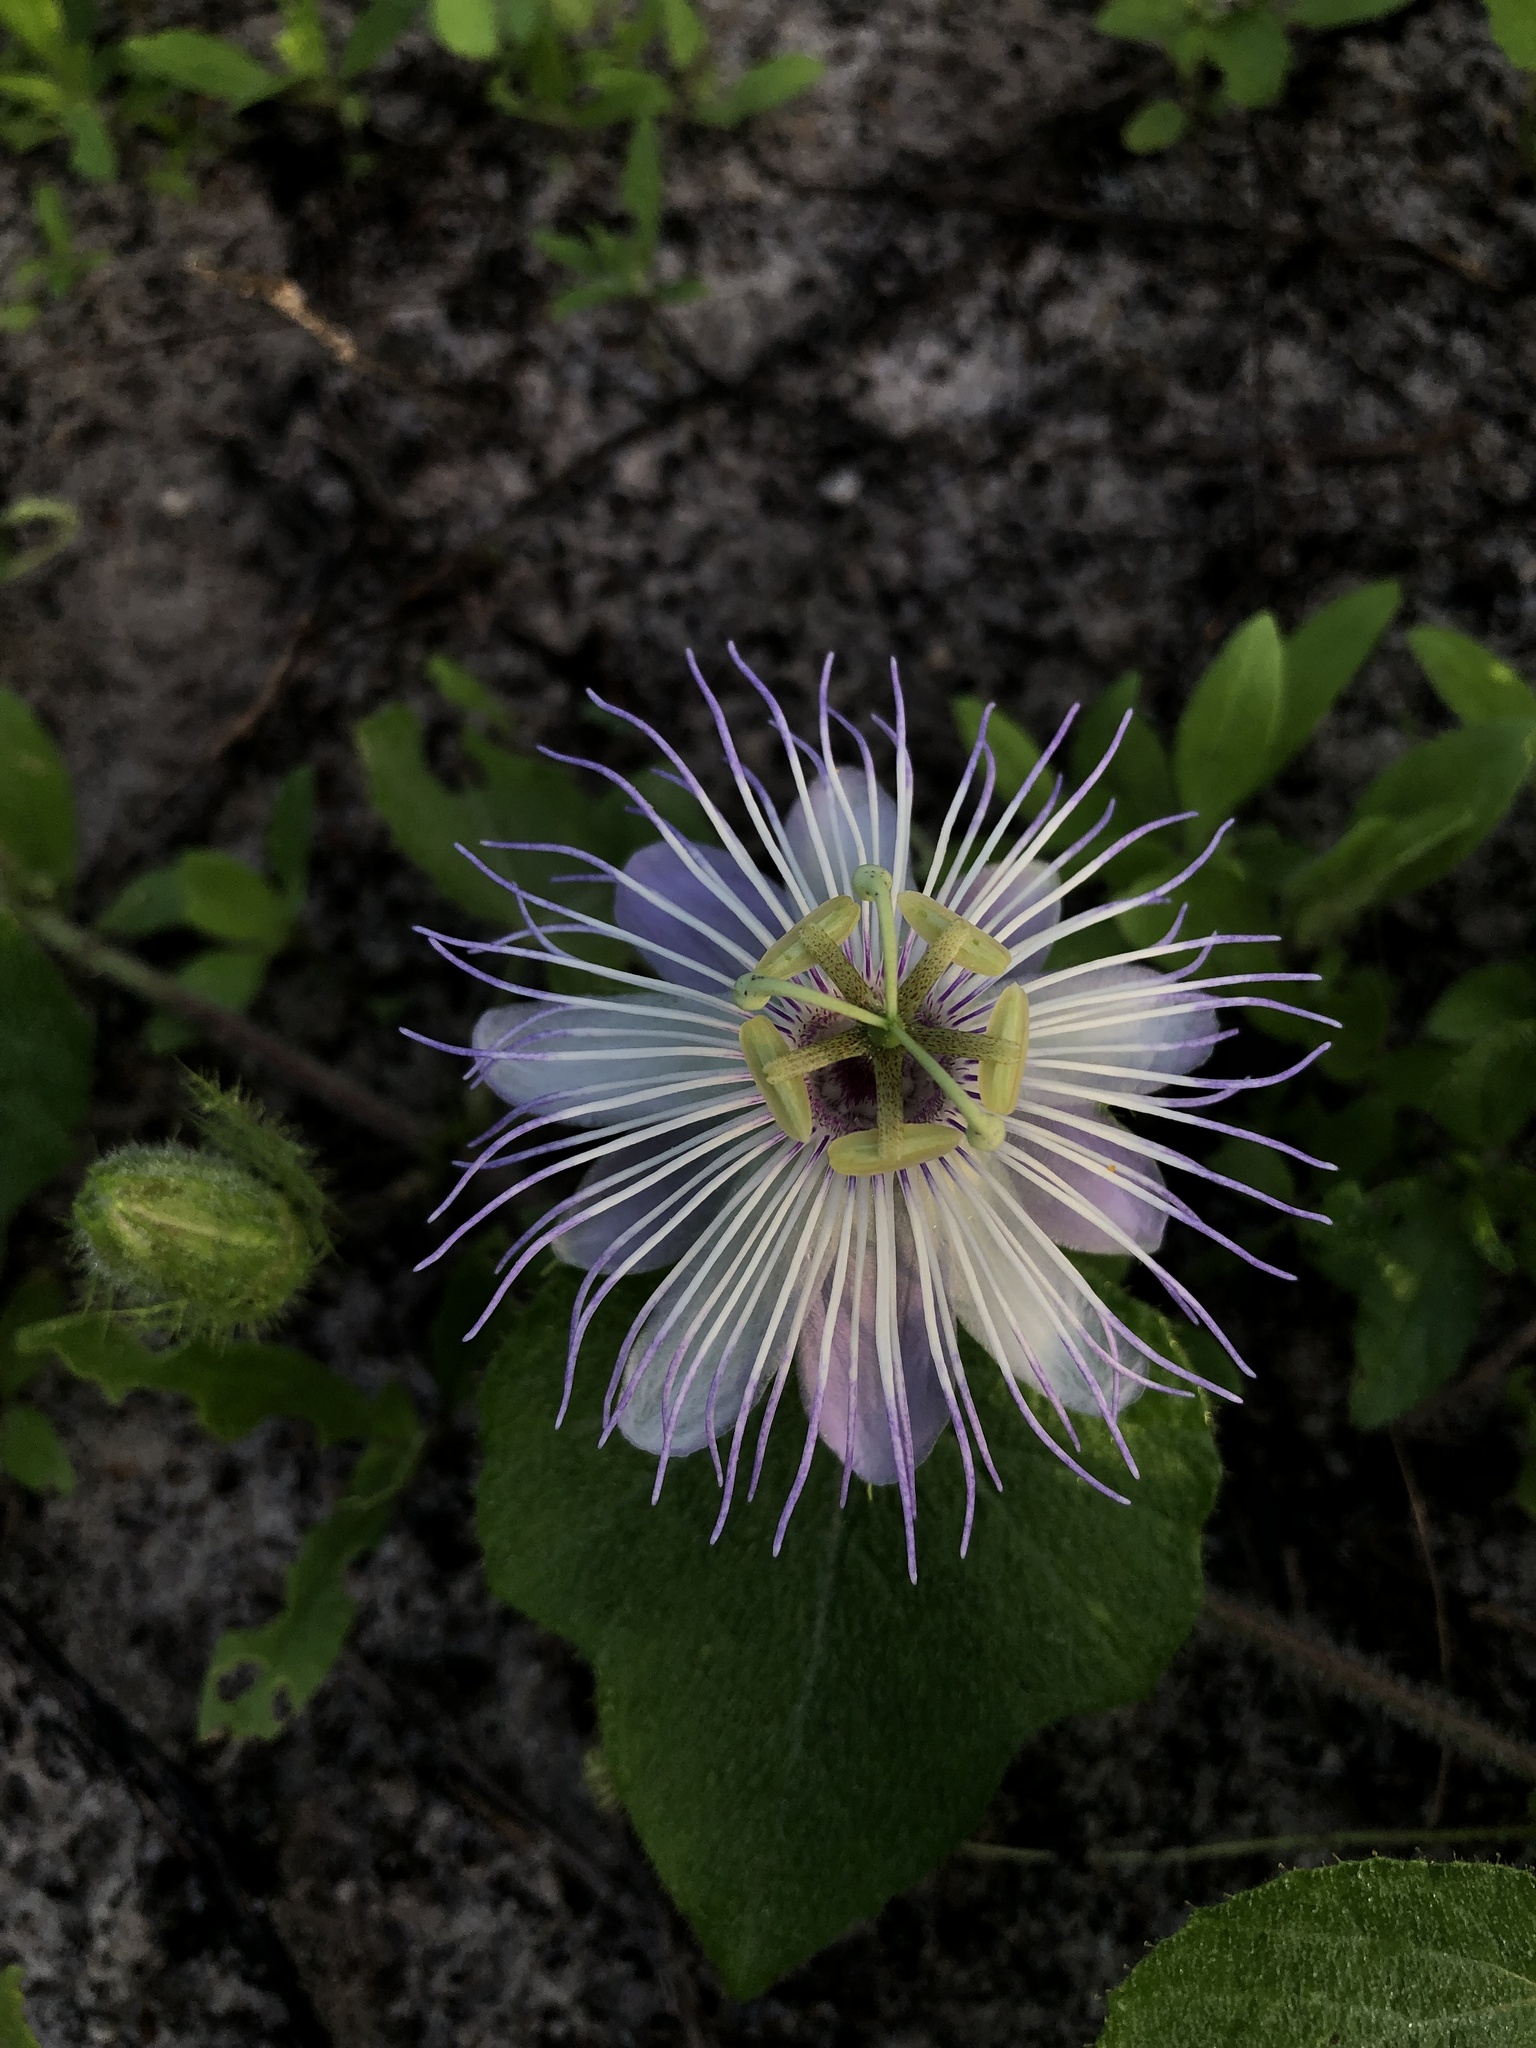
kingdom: Plantae
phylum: Tracheophyta
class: Magnoliopsida
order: Malpighiales
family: Passifloraceae
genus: Passiflora
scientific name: Passiflora foetida
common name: Fetid passionflower
